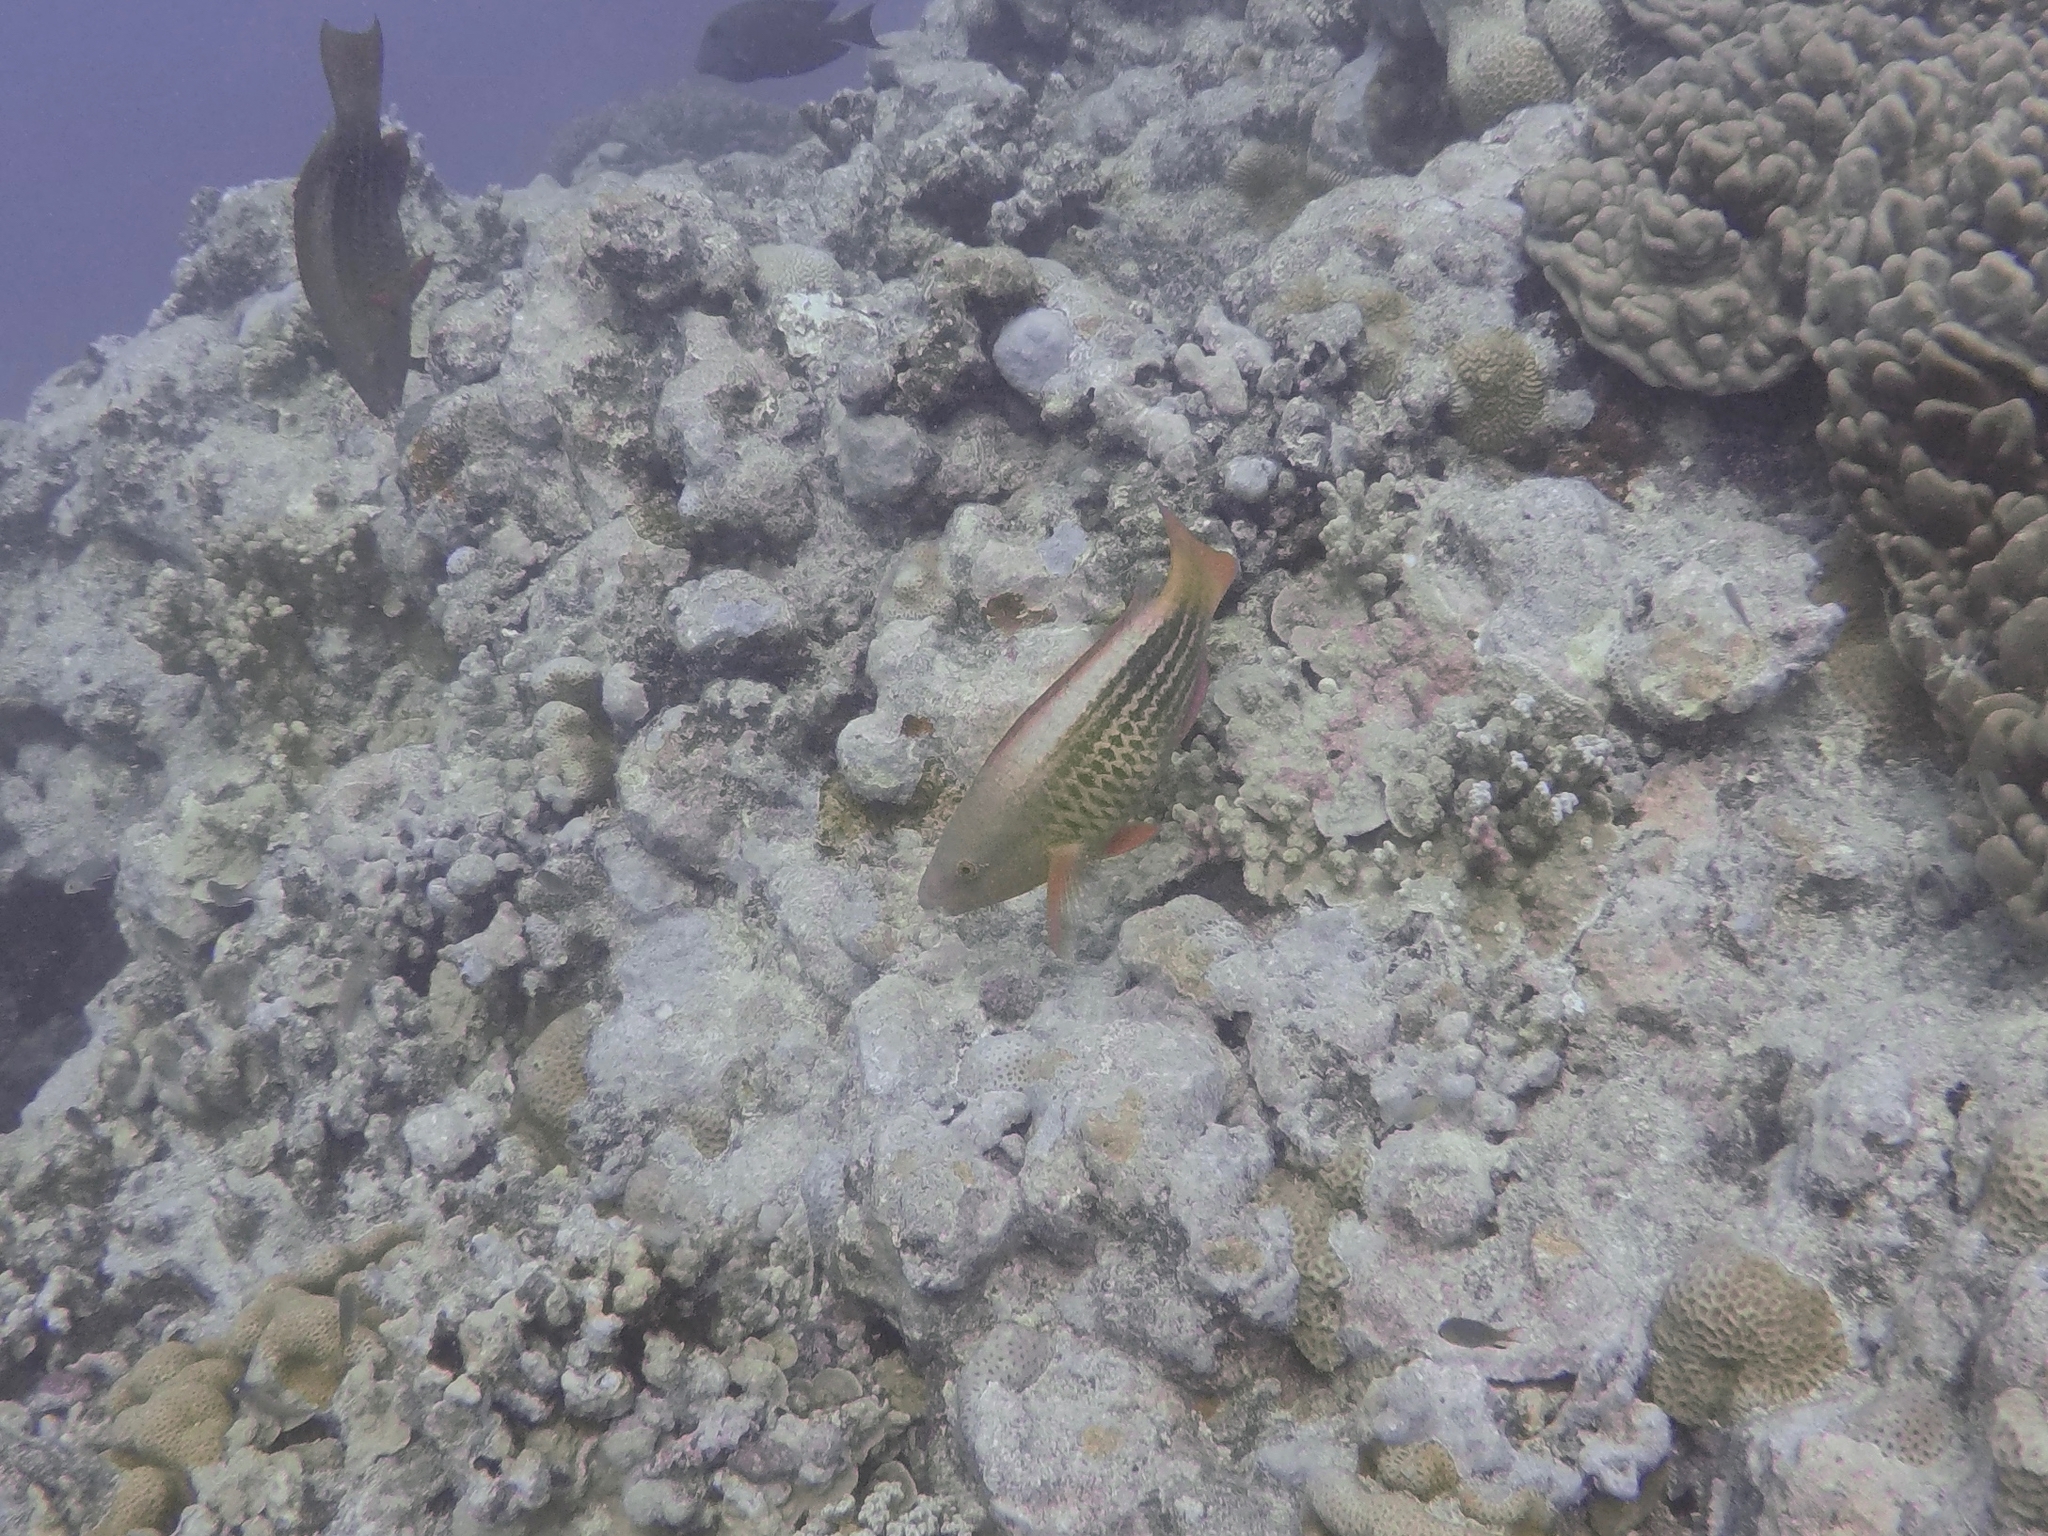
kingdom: Animalia
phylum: Chordata
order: Perciformes
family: Scaridae
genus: Scarus
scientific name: Scarus frenatus
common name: Bridled parrotfish
